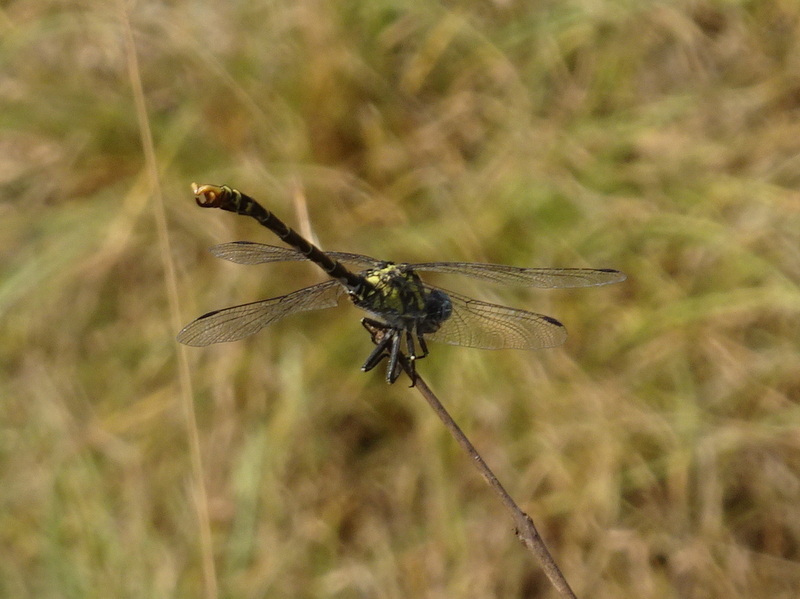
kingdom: Animalia
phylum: Arthropoda
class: Insecta
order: Odonata
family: Gomphidae
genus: Onychogomphus
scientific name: Onychogomphus uncatus
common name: Large pincertail
